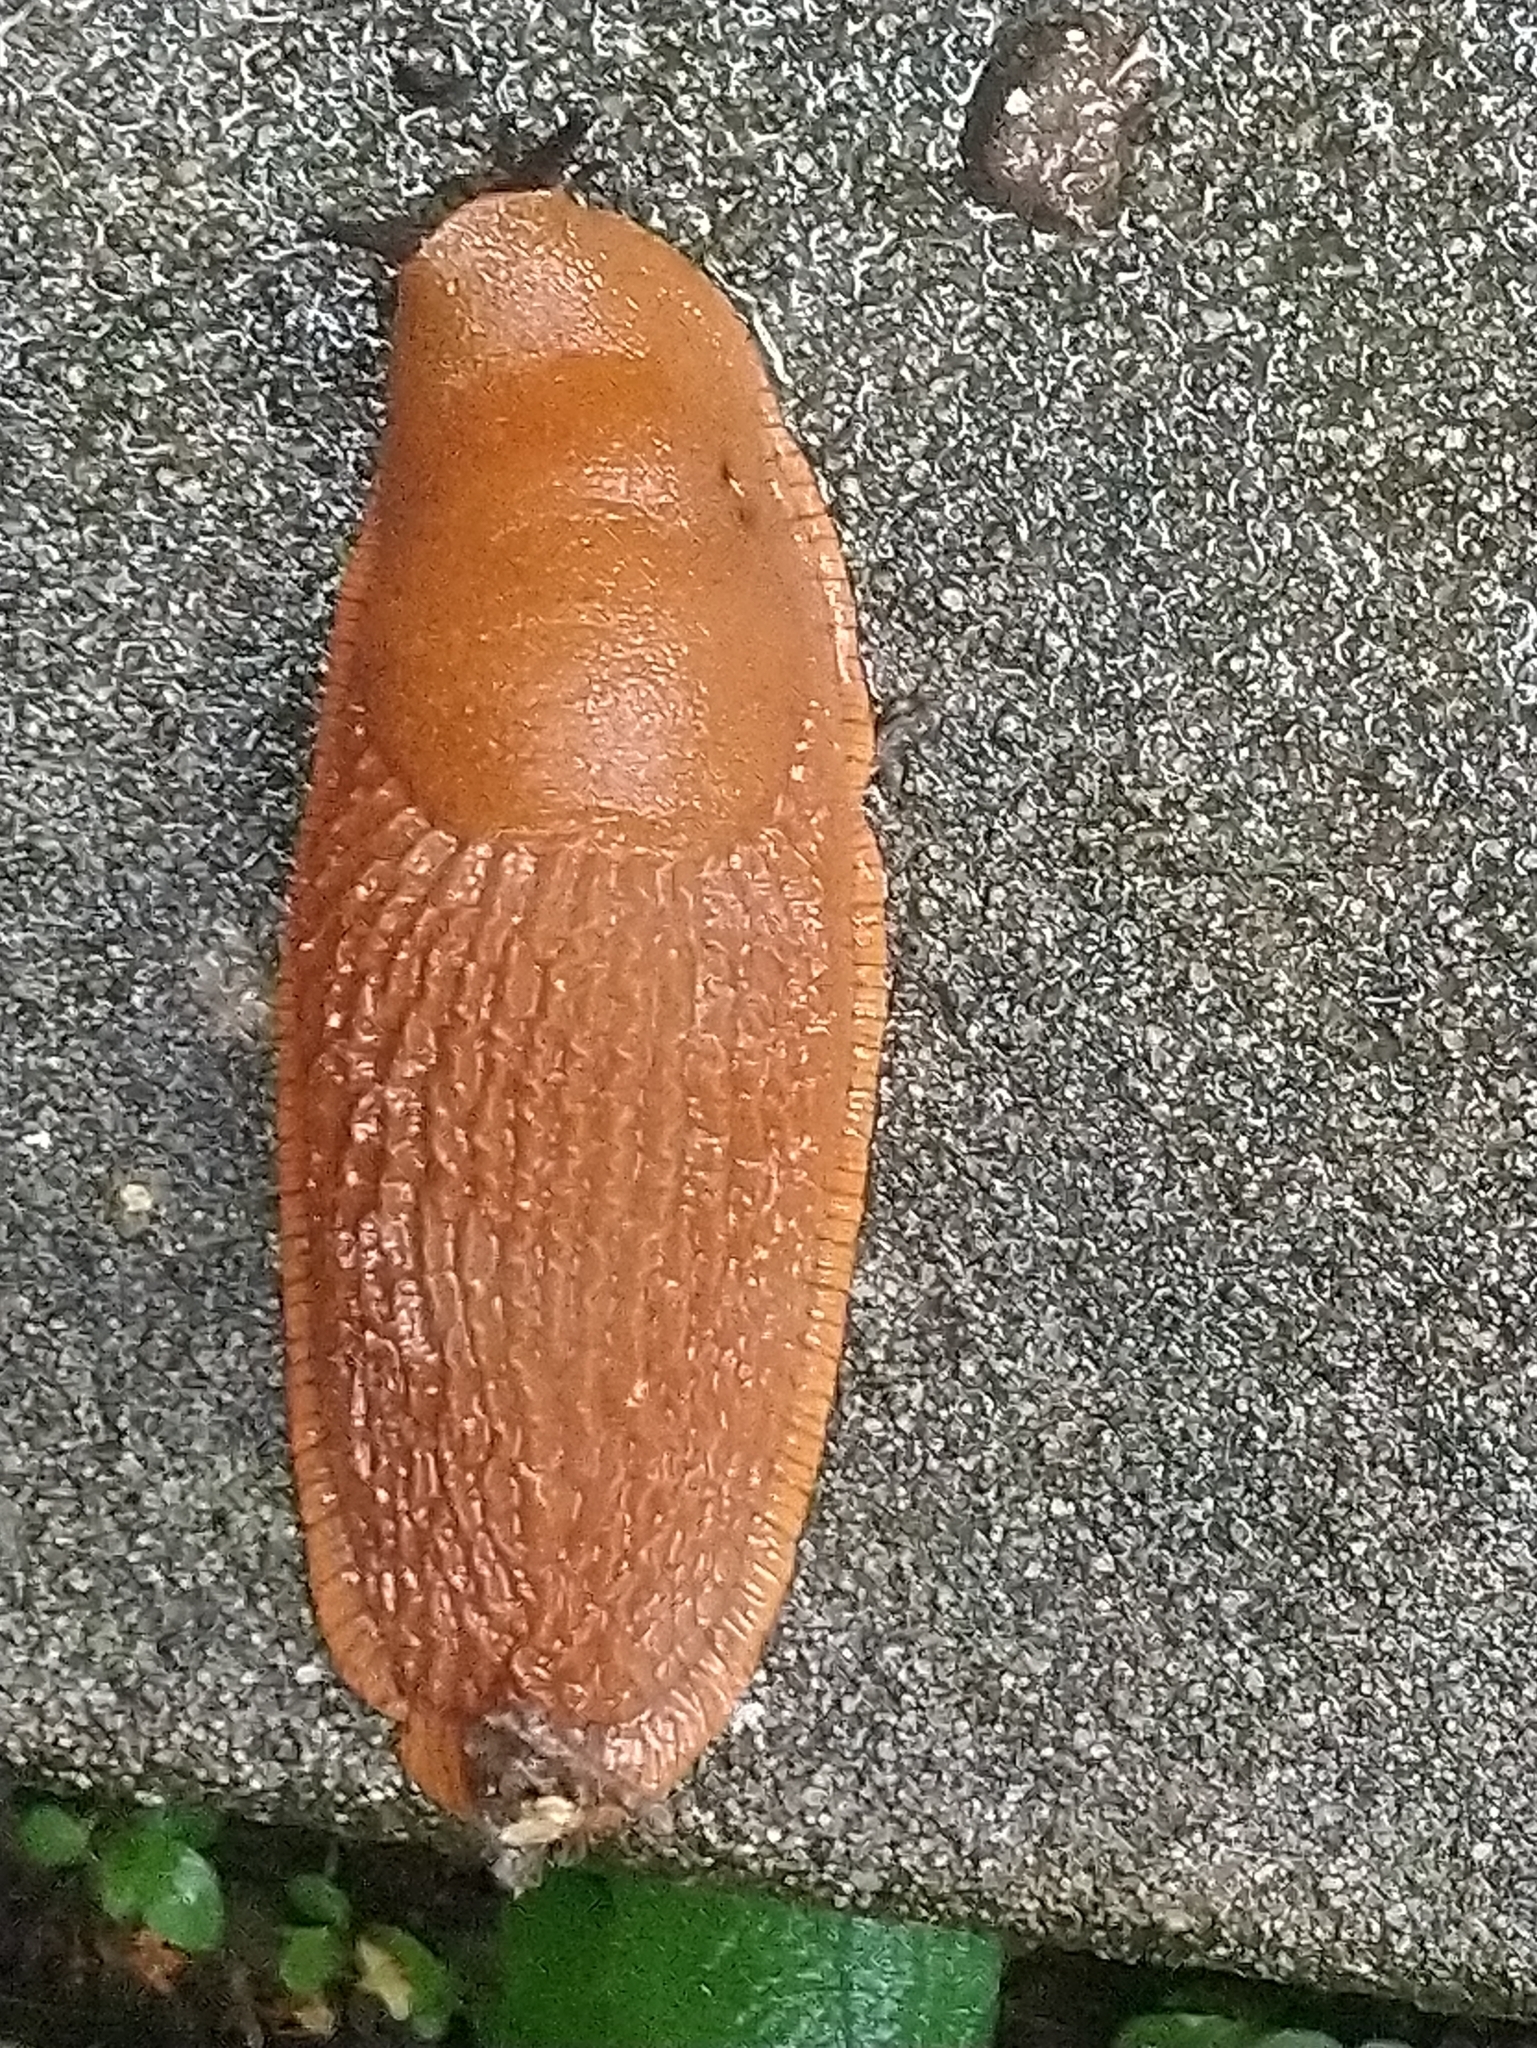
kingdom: Animalia
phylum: Mollusca
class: Gastropoda
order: Stylommatophora
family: Arionidae
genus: Arion
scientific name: Arion vulgaris
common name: Lusitanian slug
